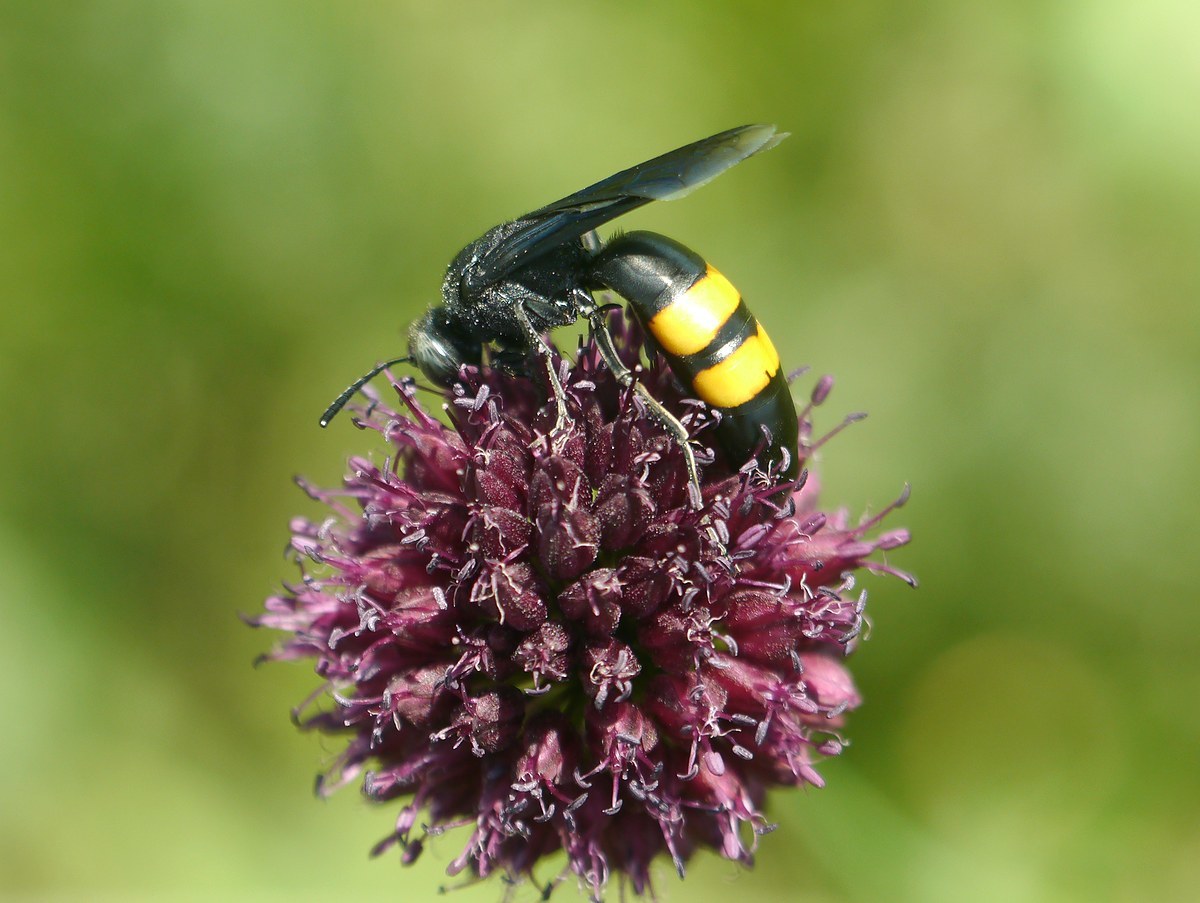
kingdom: Animalia
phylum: Arthropoda
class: Insecta
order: Hymenoptera
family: Crabronidae
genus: Stizoides
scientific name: Stizoides tridentatus
